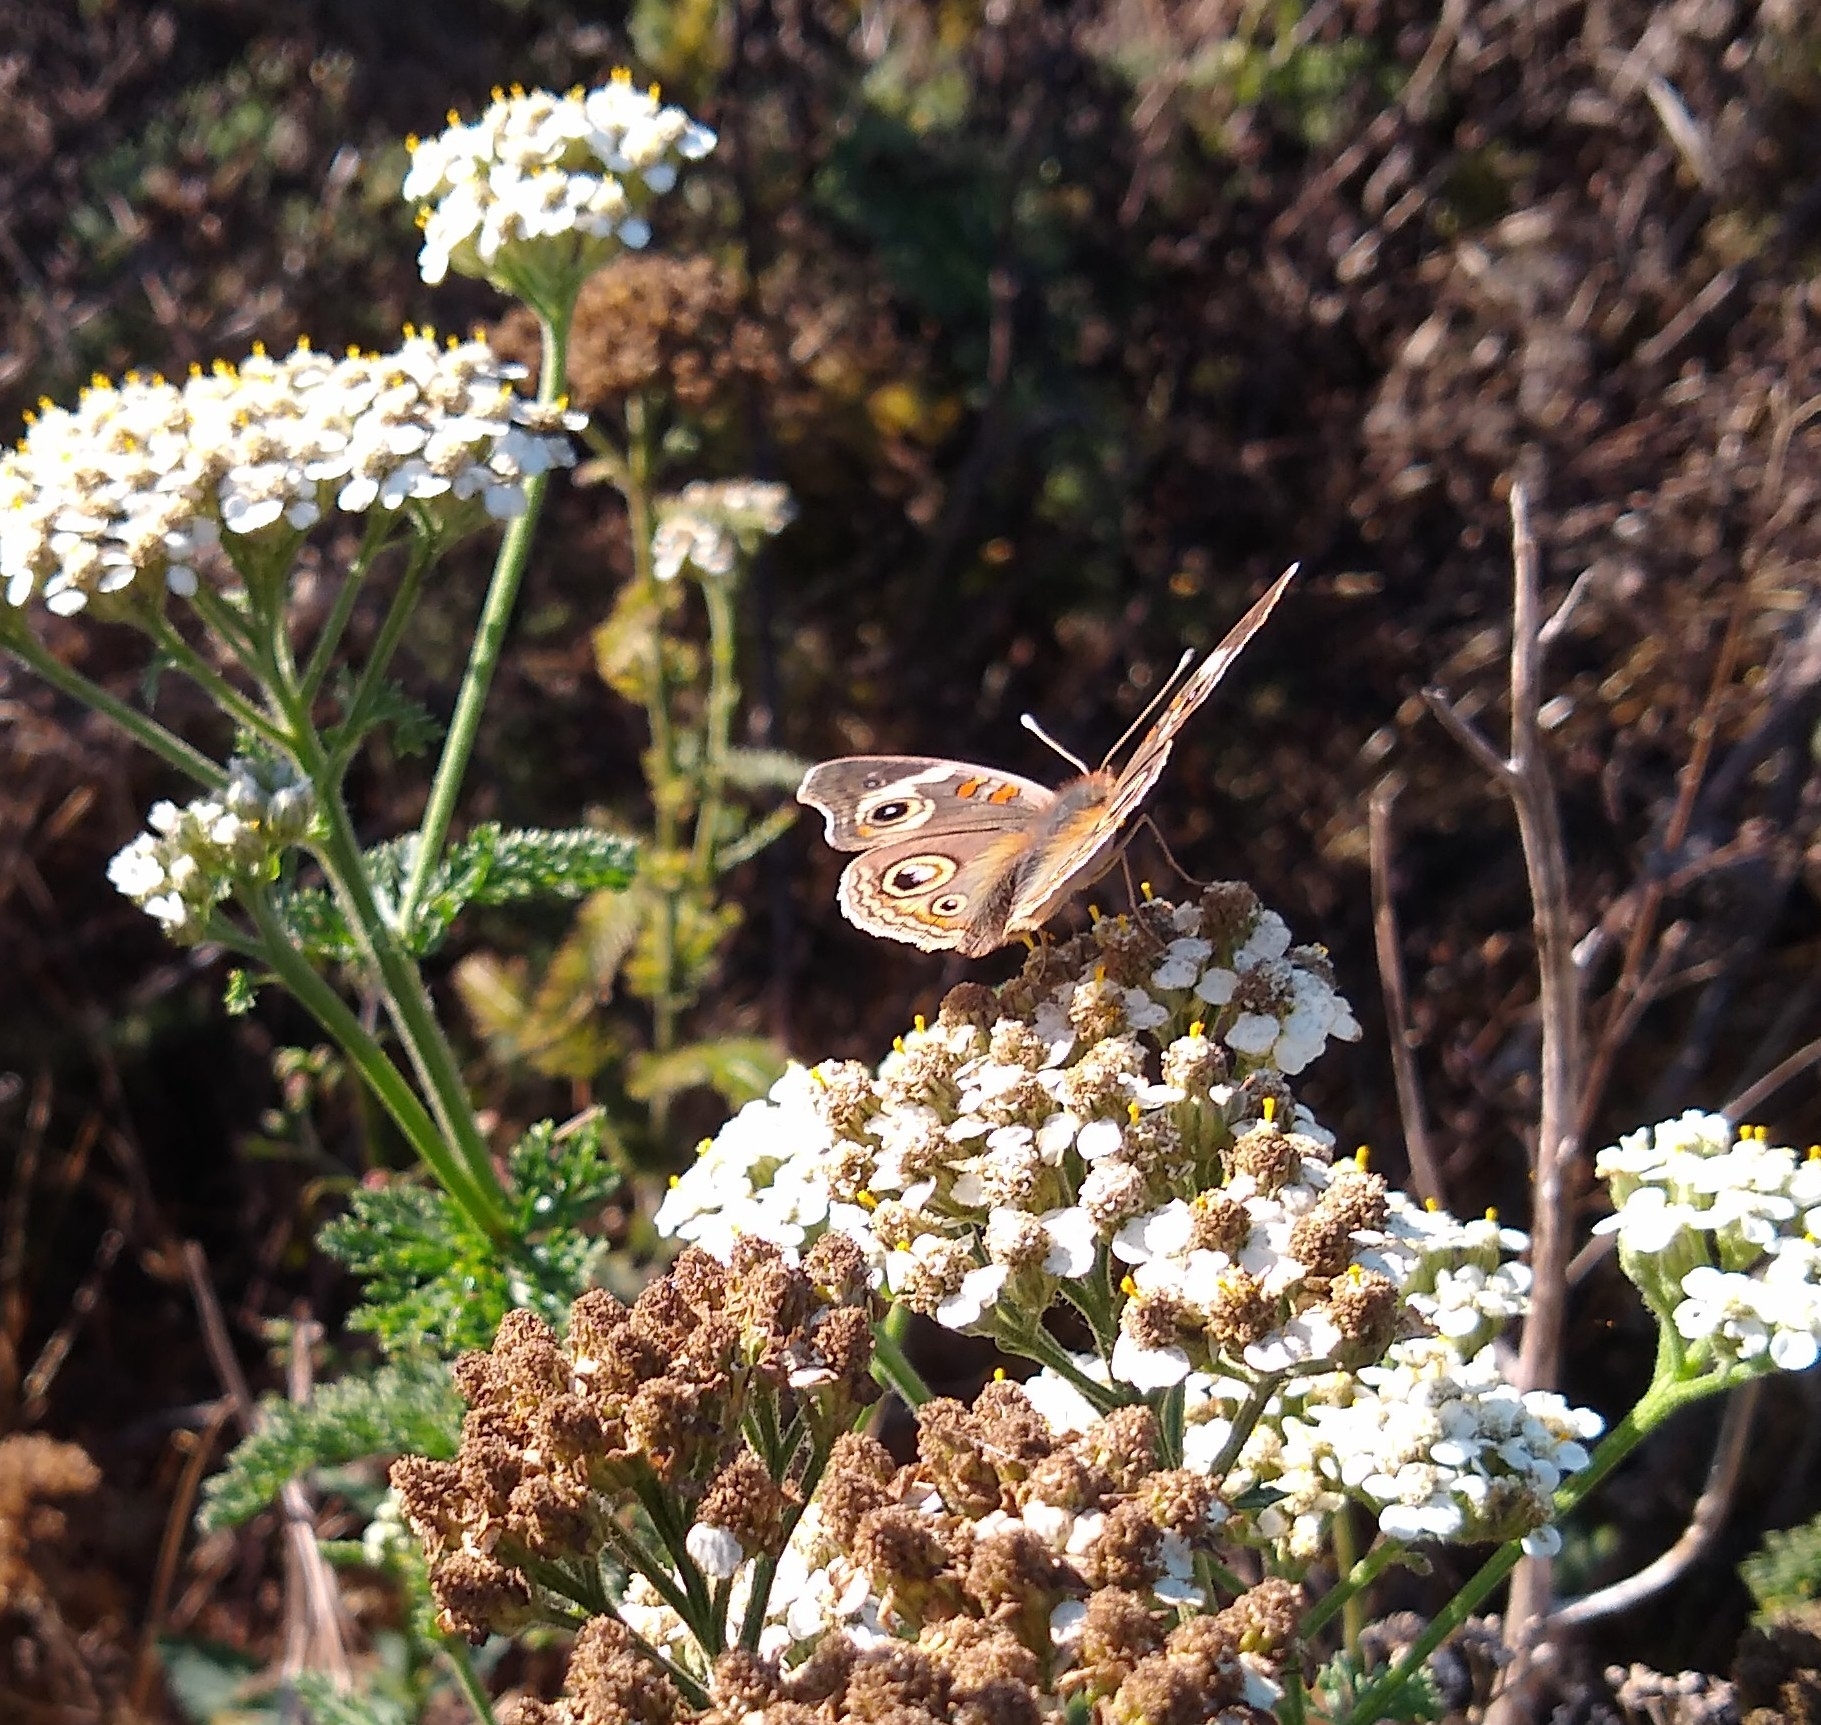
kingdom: Animalia
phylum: Arthropoda
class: Insecta
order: Lepidoptera
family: Nymphalidae
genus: Junonia
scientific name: Junonia grisea
